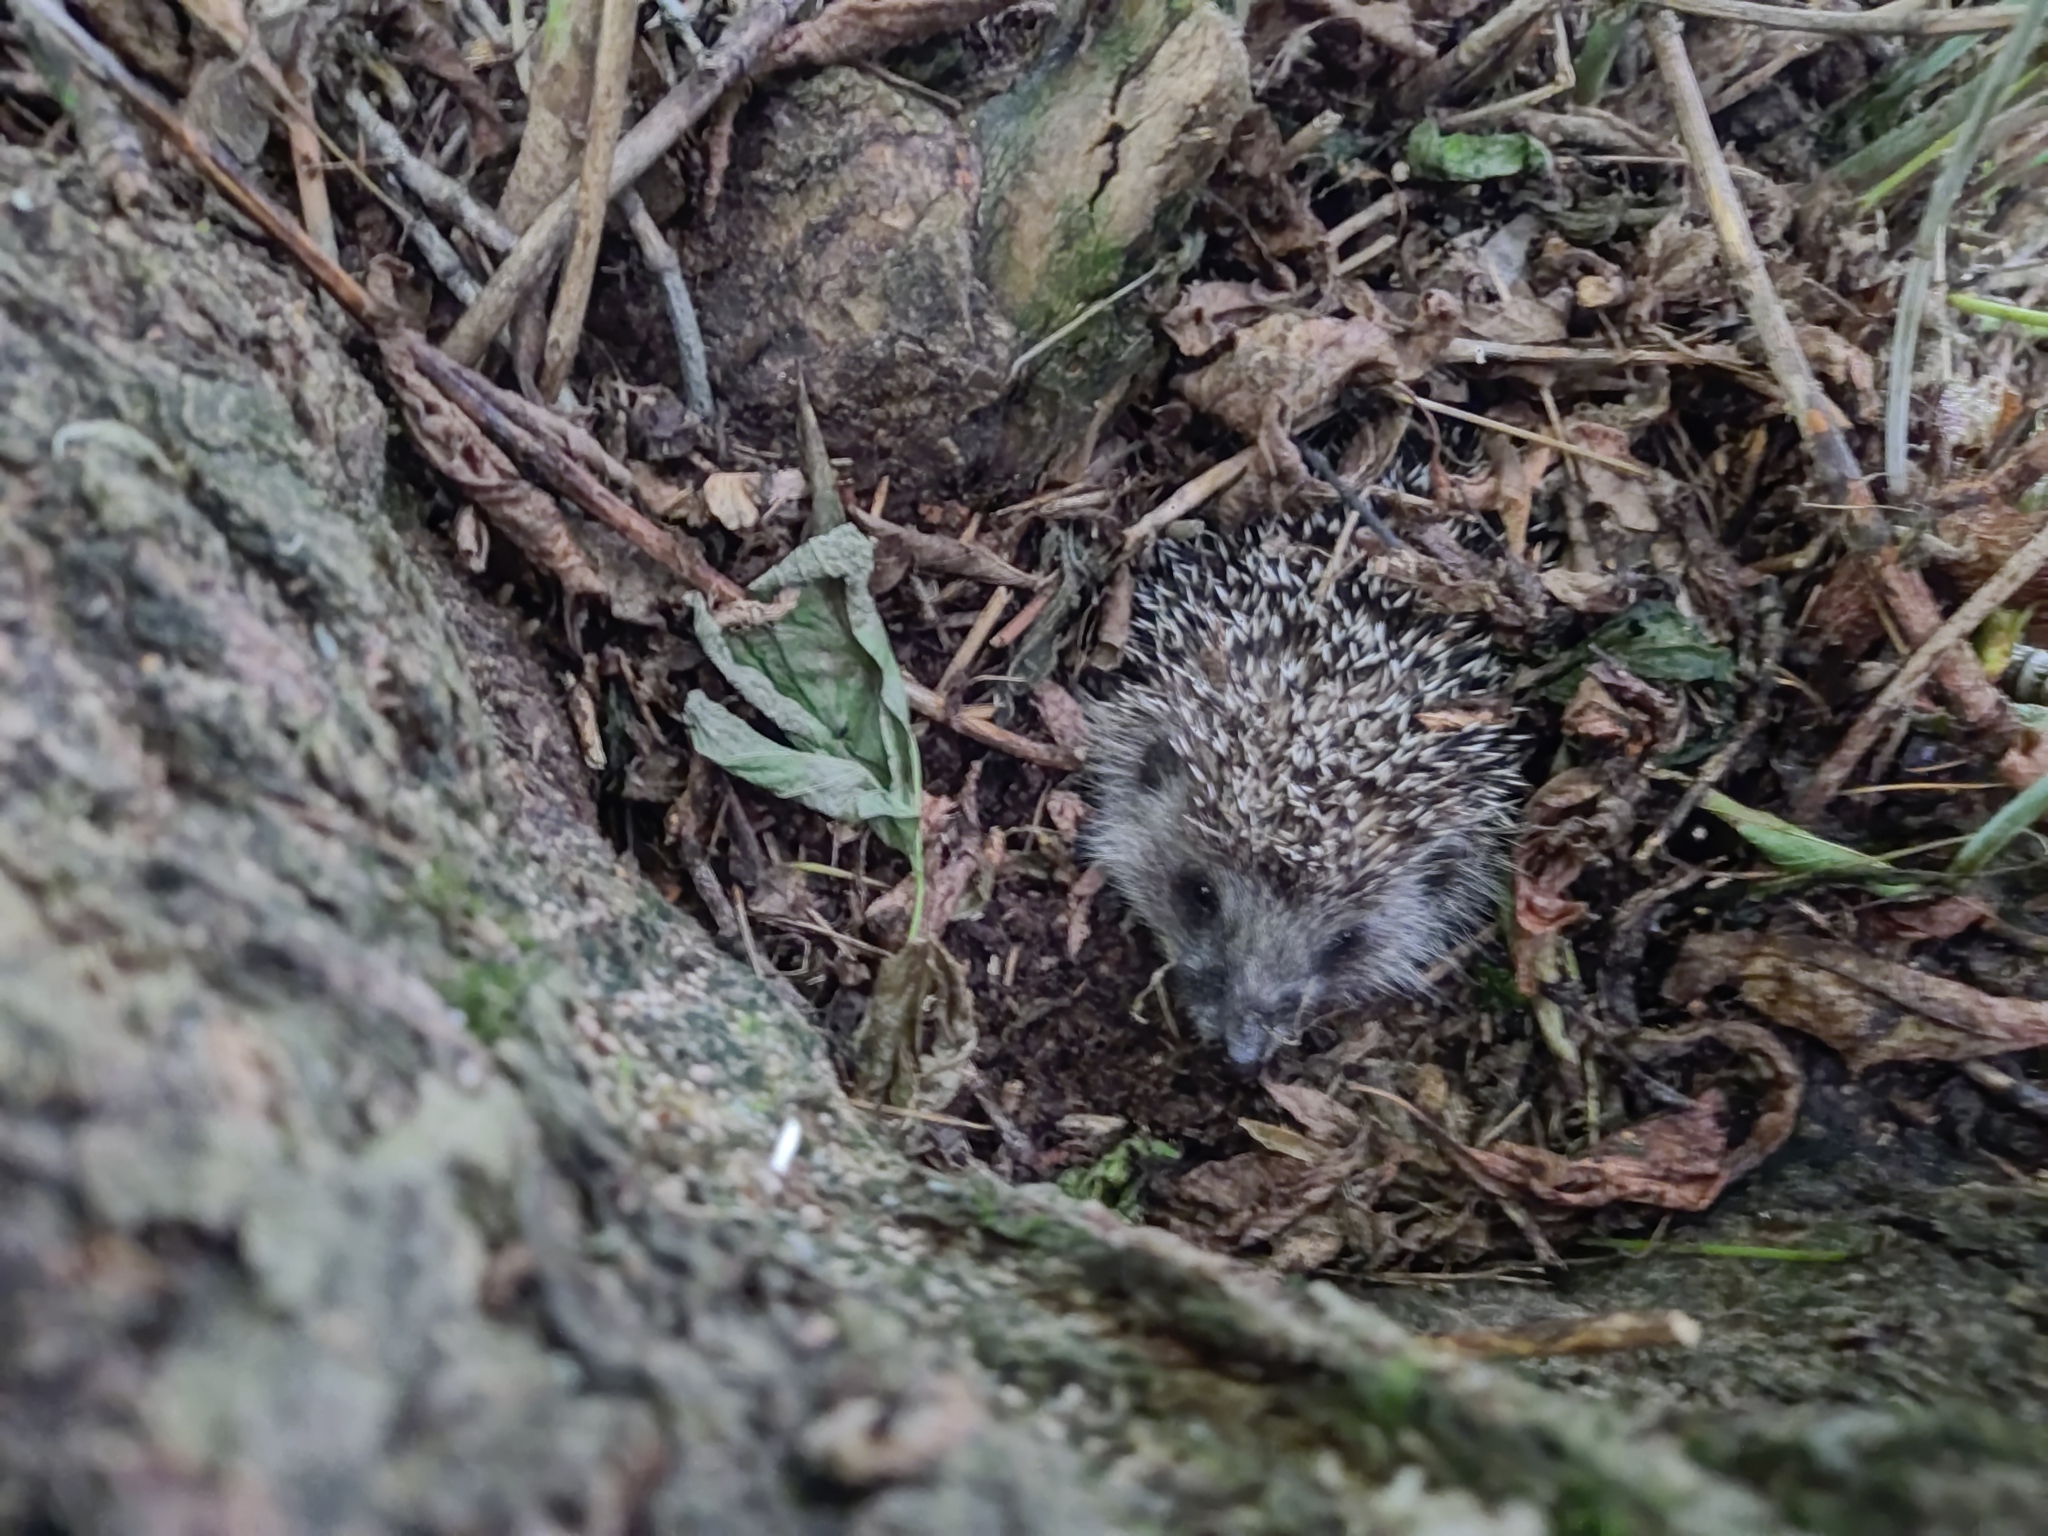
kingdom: Animalia
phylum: Chordata
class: Mammalia
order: Erinaceomorpha
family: Erinaceidae
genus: Erinaceus
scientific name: Erinaceus europaeus
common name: West european hedgehog
